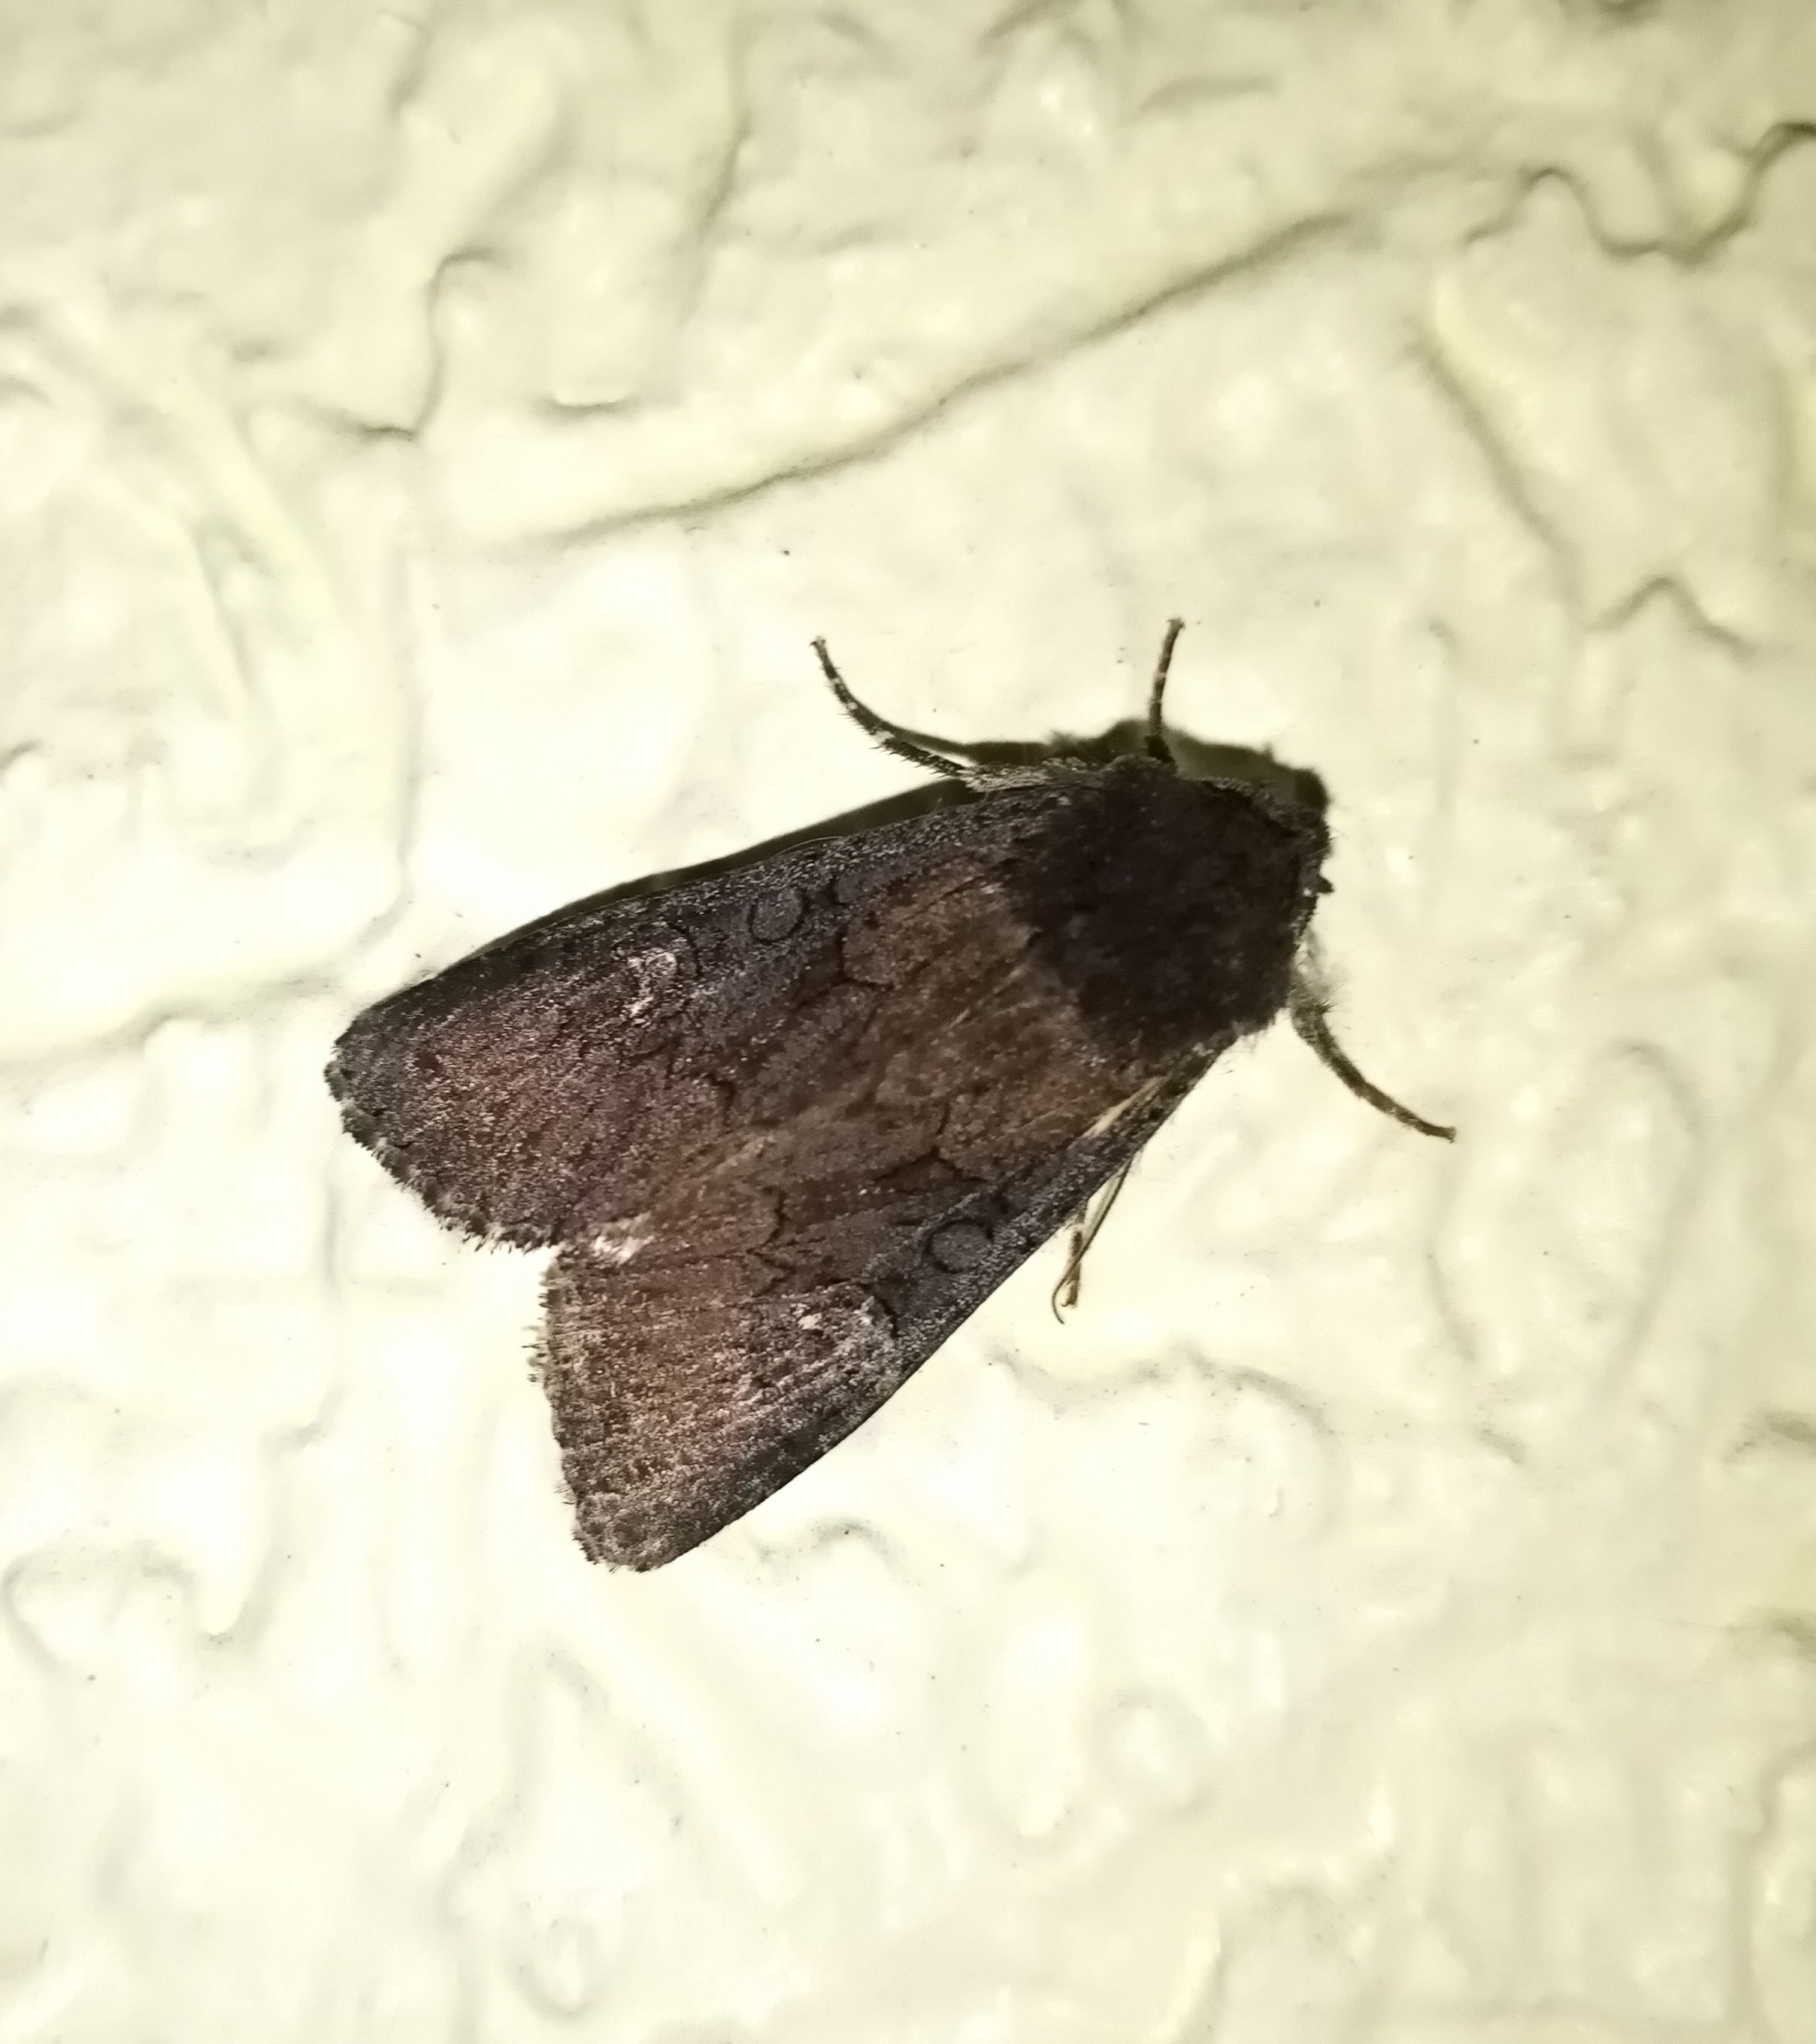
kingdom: Animalia
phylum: Arthropoda
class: Insecta
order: Lepidoptera
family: Noctuidae
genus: Aporophyla
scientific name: Aporophyla nigra
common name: Black rustic
